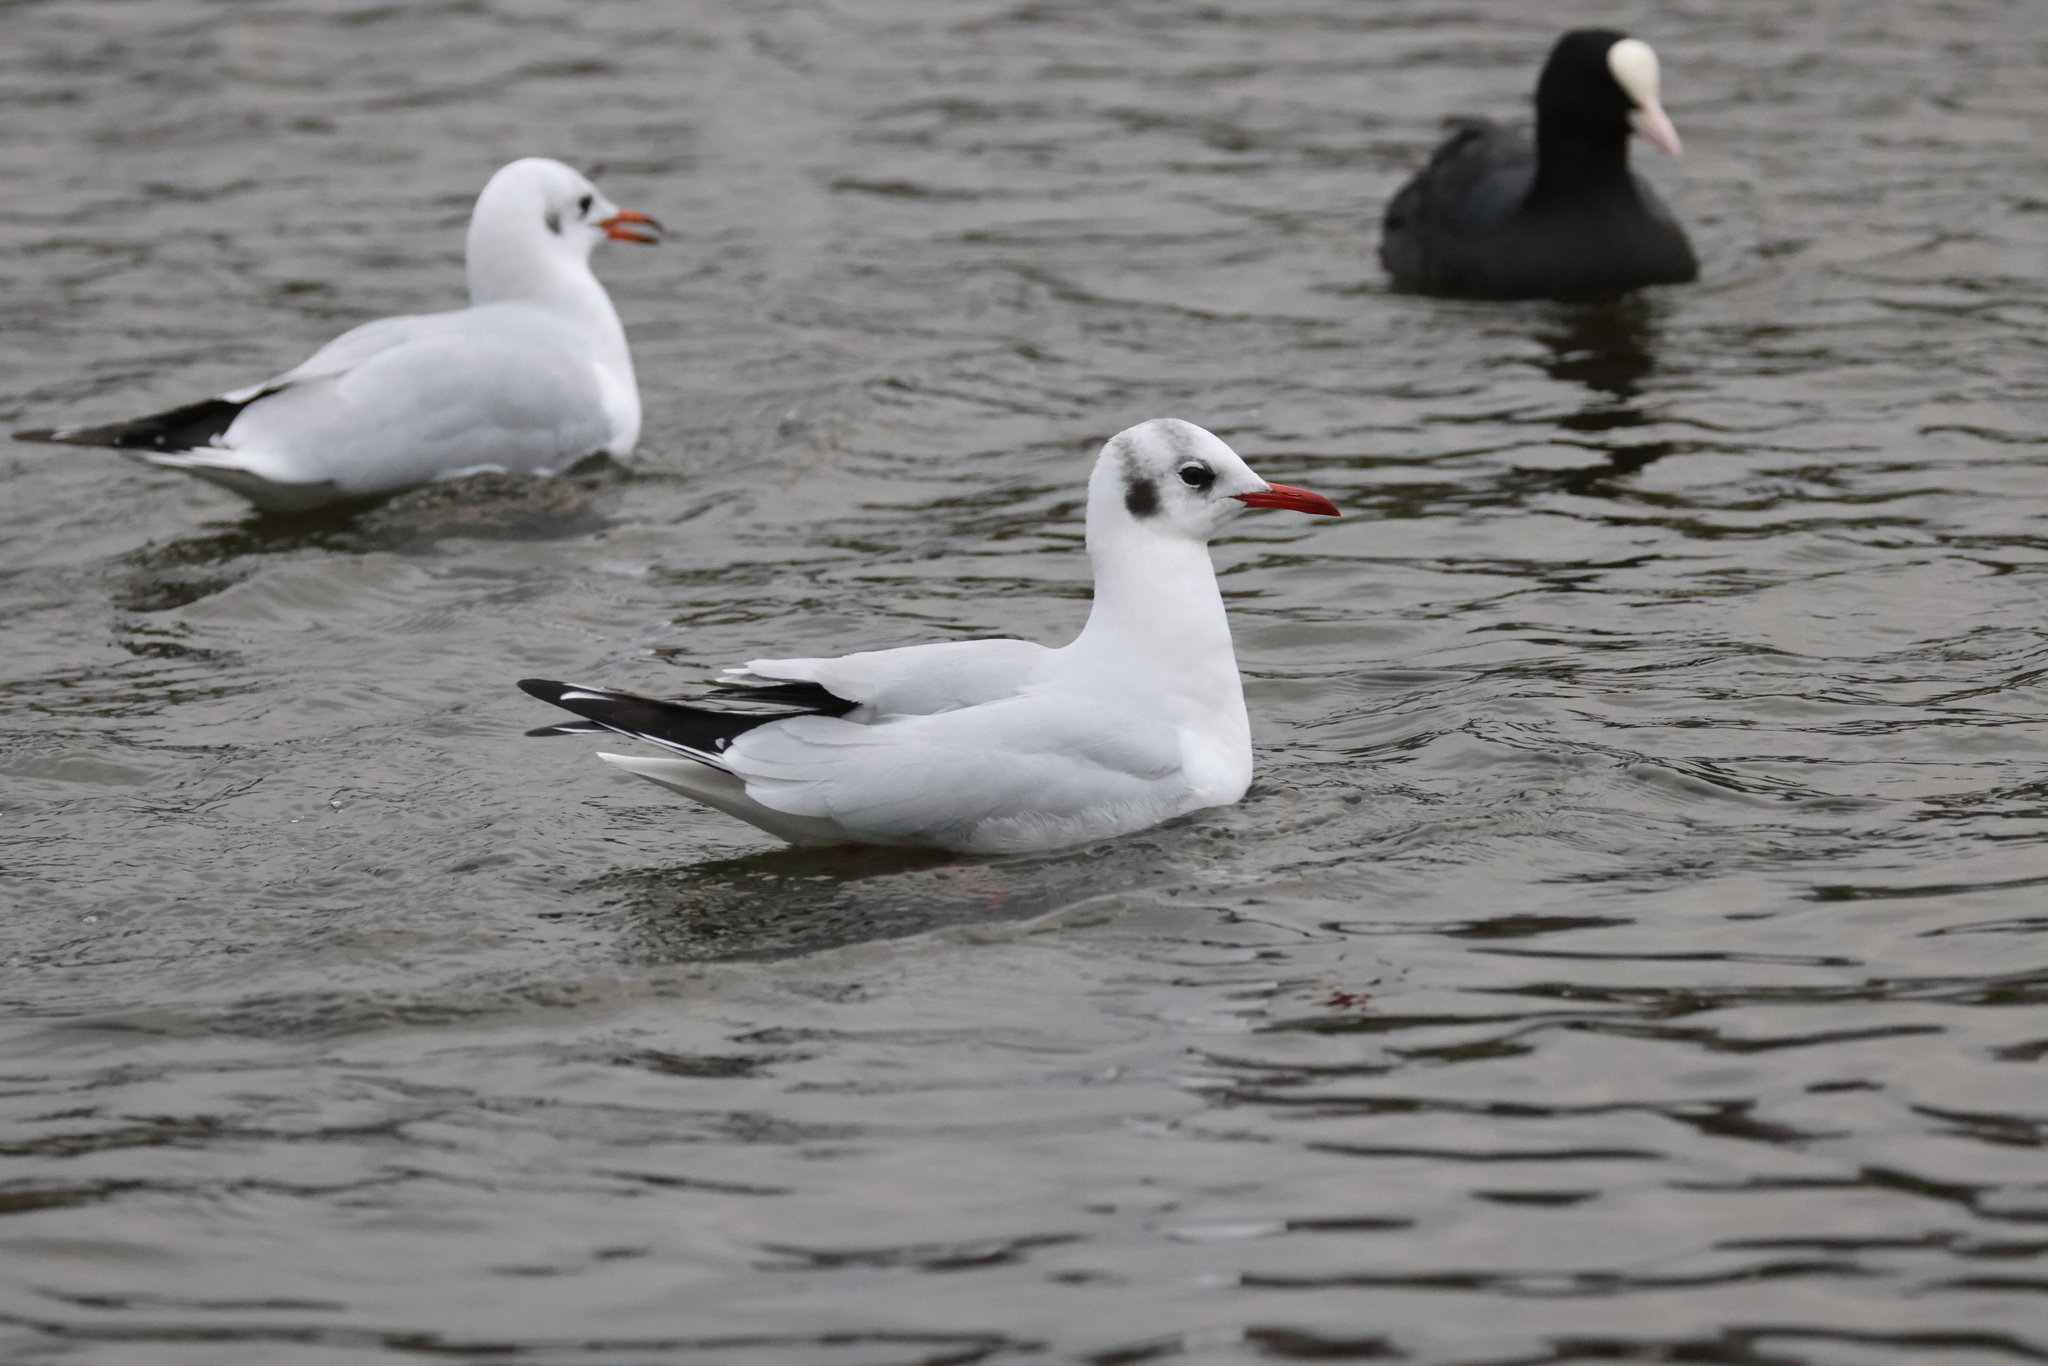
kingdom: Animalia
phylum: Chordata
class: Aves
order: Charadriiformes
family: Laridae
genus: Chroicocephalus
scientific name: Chroicocephalus ridibundus
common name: Black-headed gull
